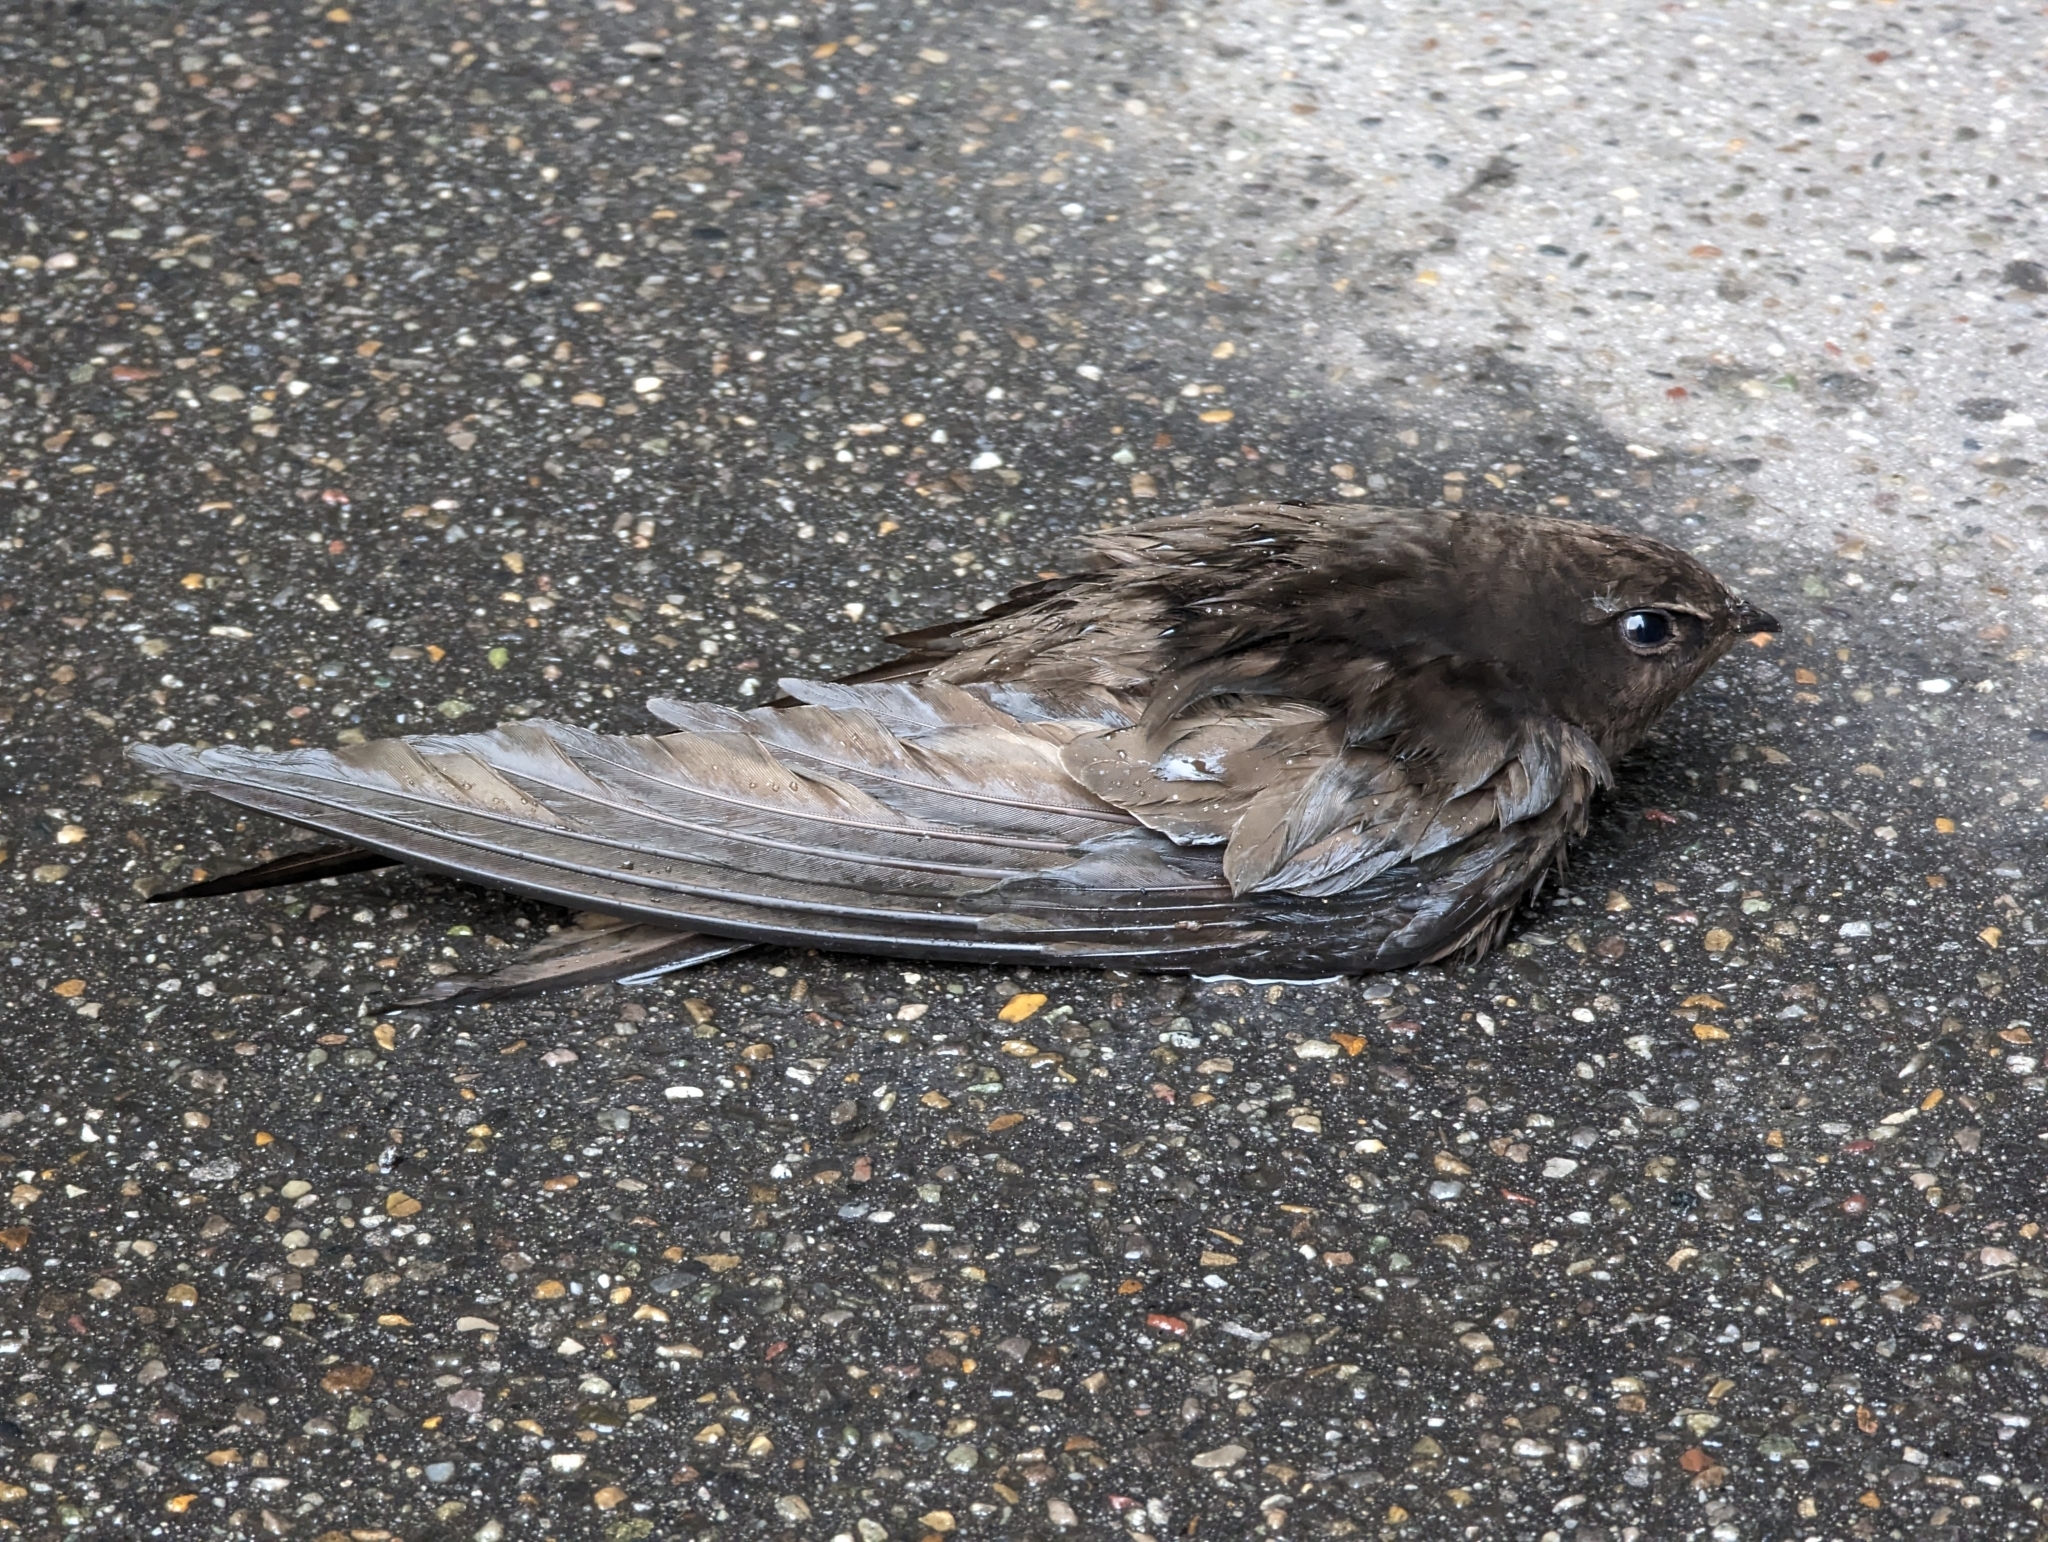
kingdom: Animalia
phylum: Chordata
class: Aves
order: Apodiformes
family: Apodidae
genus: Apus
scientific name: Apus apus
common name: Common swift
